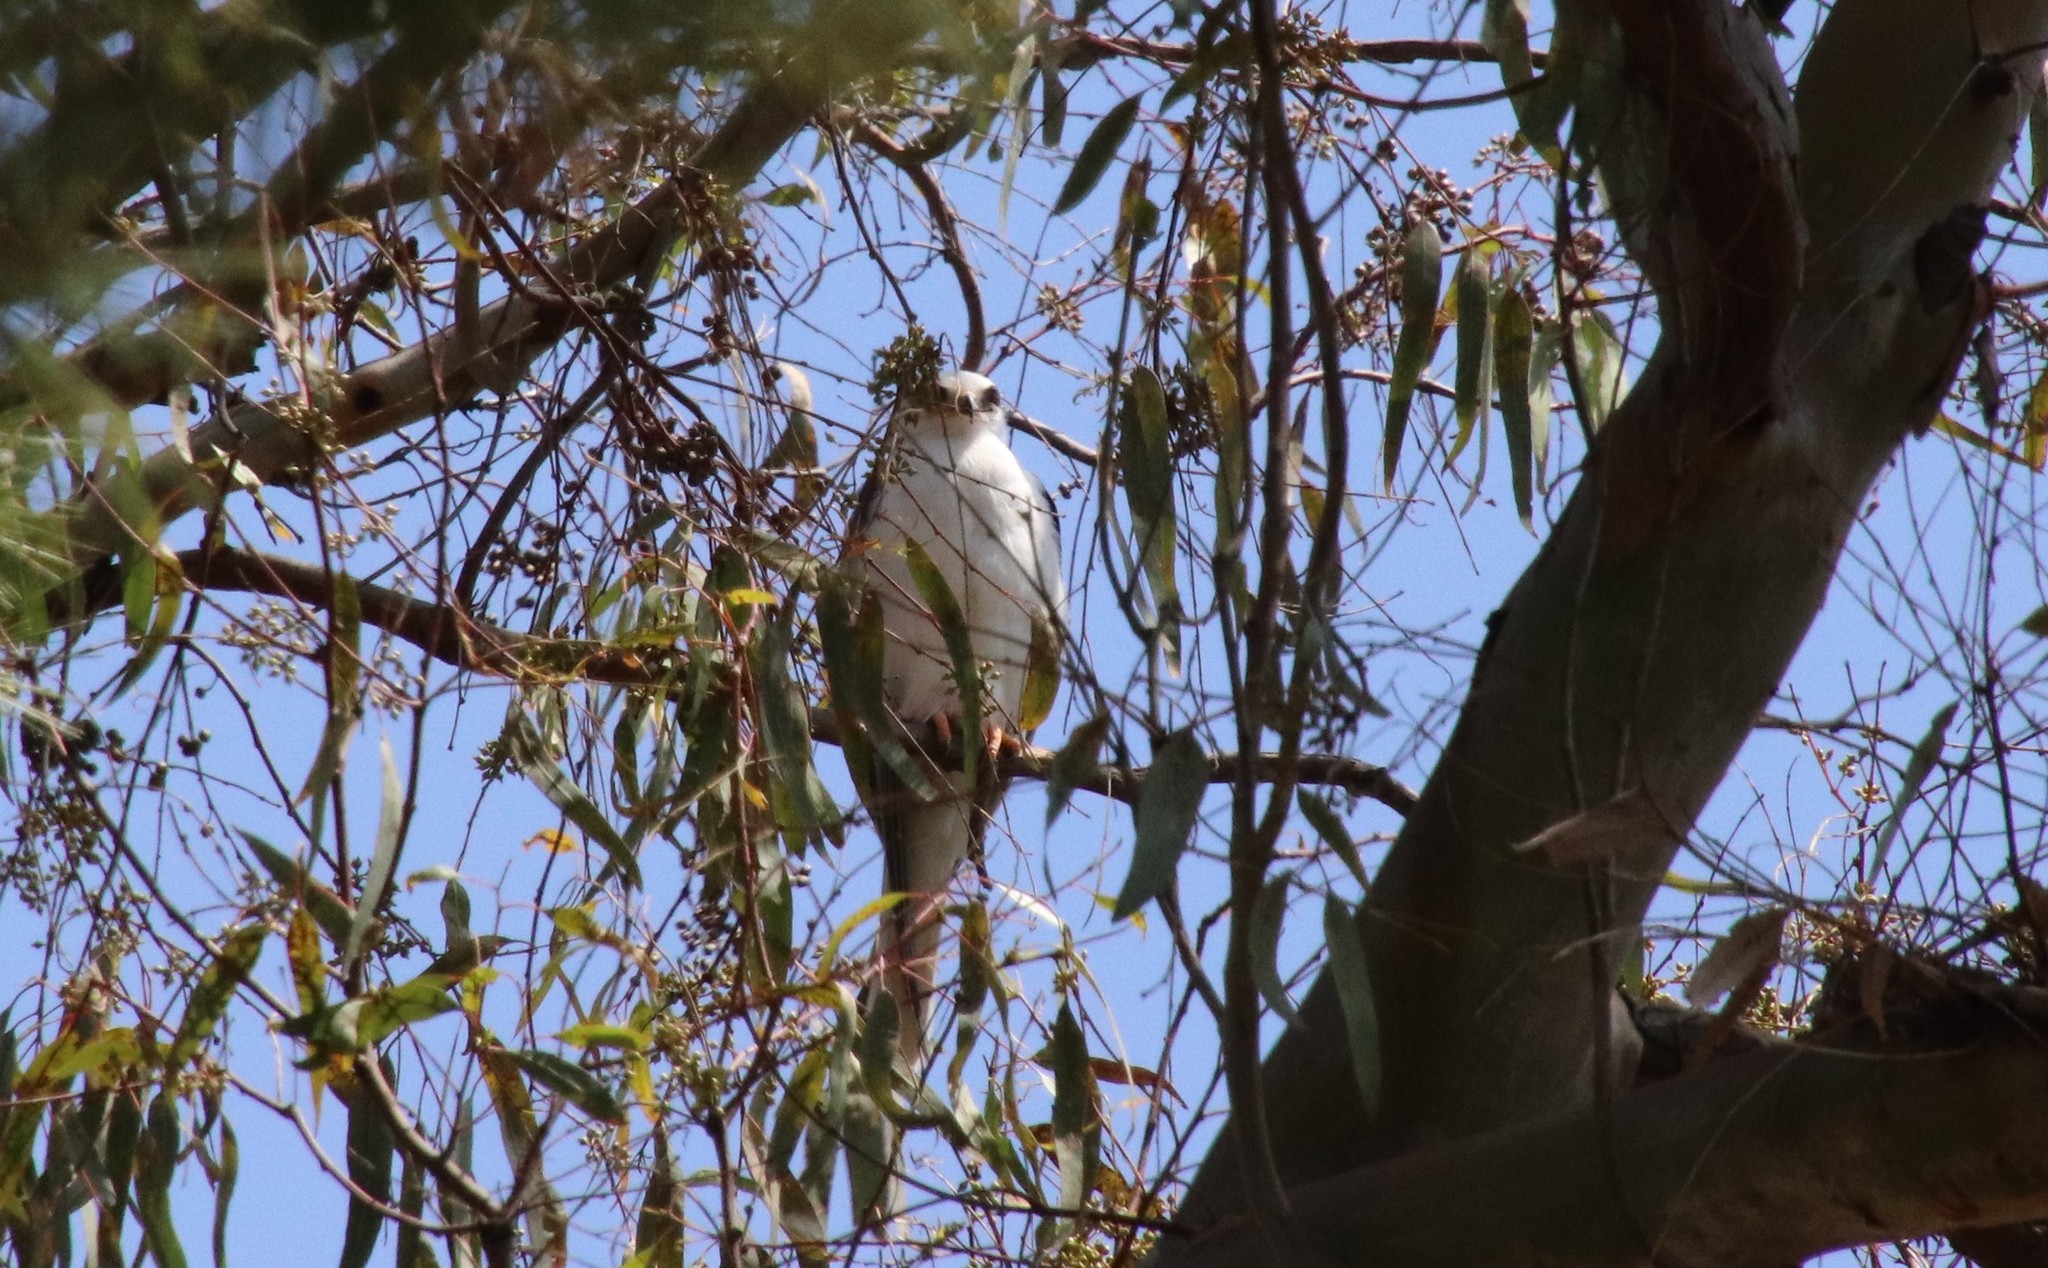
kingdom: Animalia
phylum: Chordata
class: Aves
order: Accipitriformes
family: Accipitridae
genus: Elanus
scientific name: Elanus leucurus
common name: White-tailed kite
